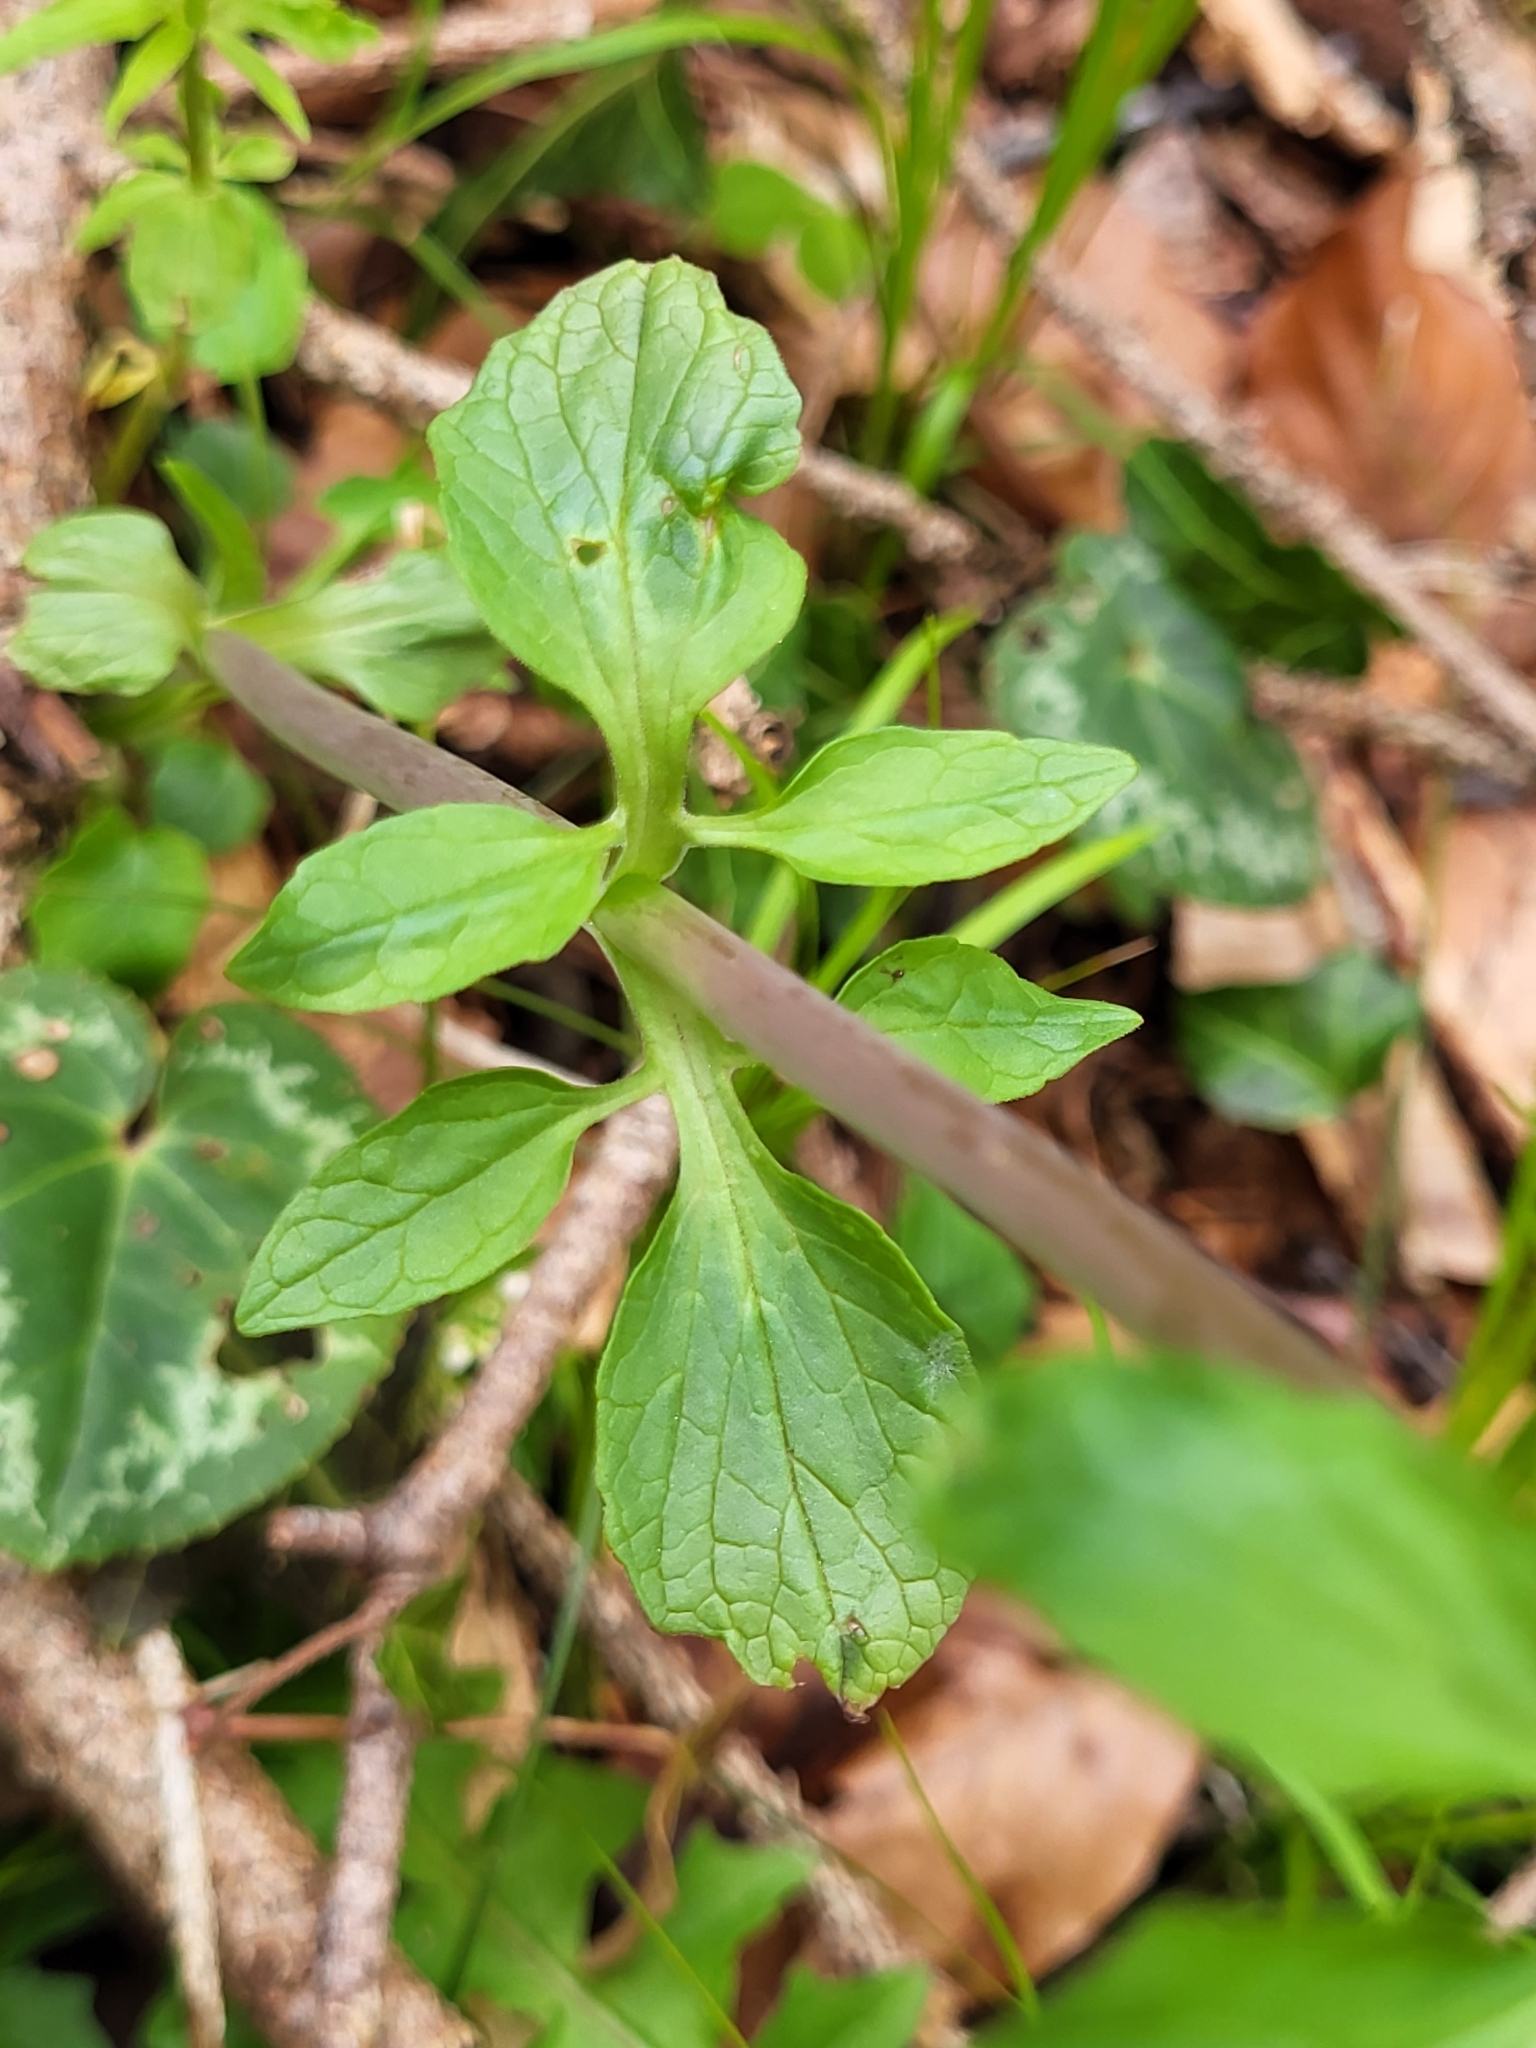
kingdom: Plantae
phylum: Tracheophyta
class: Magnoliopsida
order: Dipsacales
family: Caprifoliaceae
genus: Valeriana
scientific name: Valeriana tripteris
